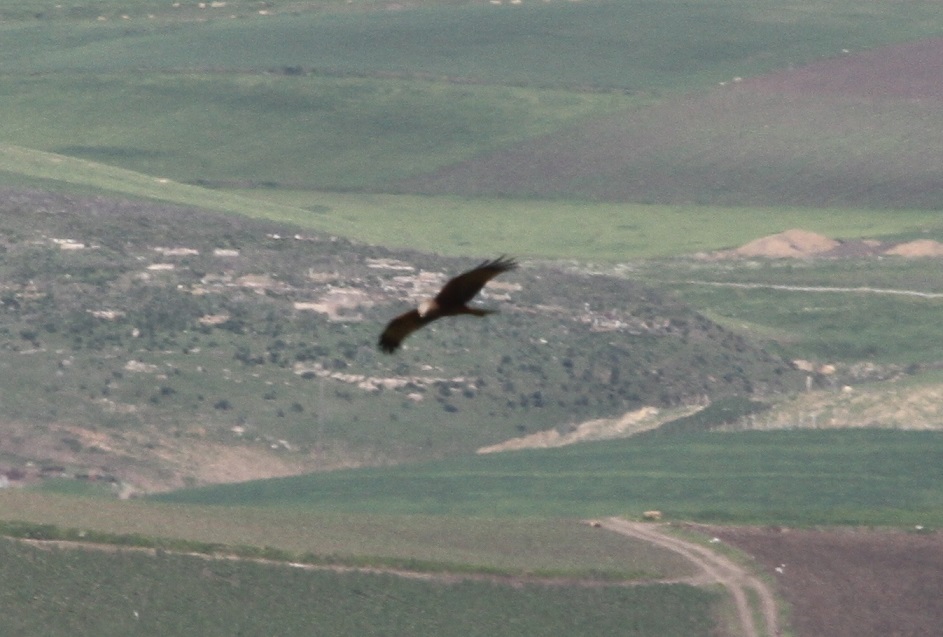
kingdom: Animalia
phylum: Chordata
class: Aves
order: Accipitriformes
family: Accipitridae
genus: Circus
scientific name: Circus aeruginosus
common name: Western marsh harrier
